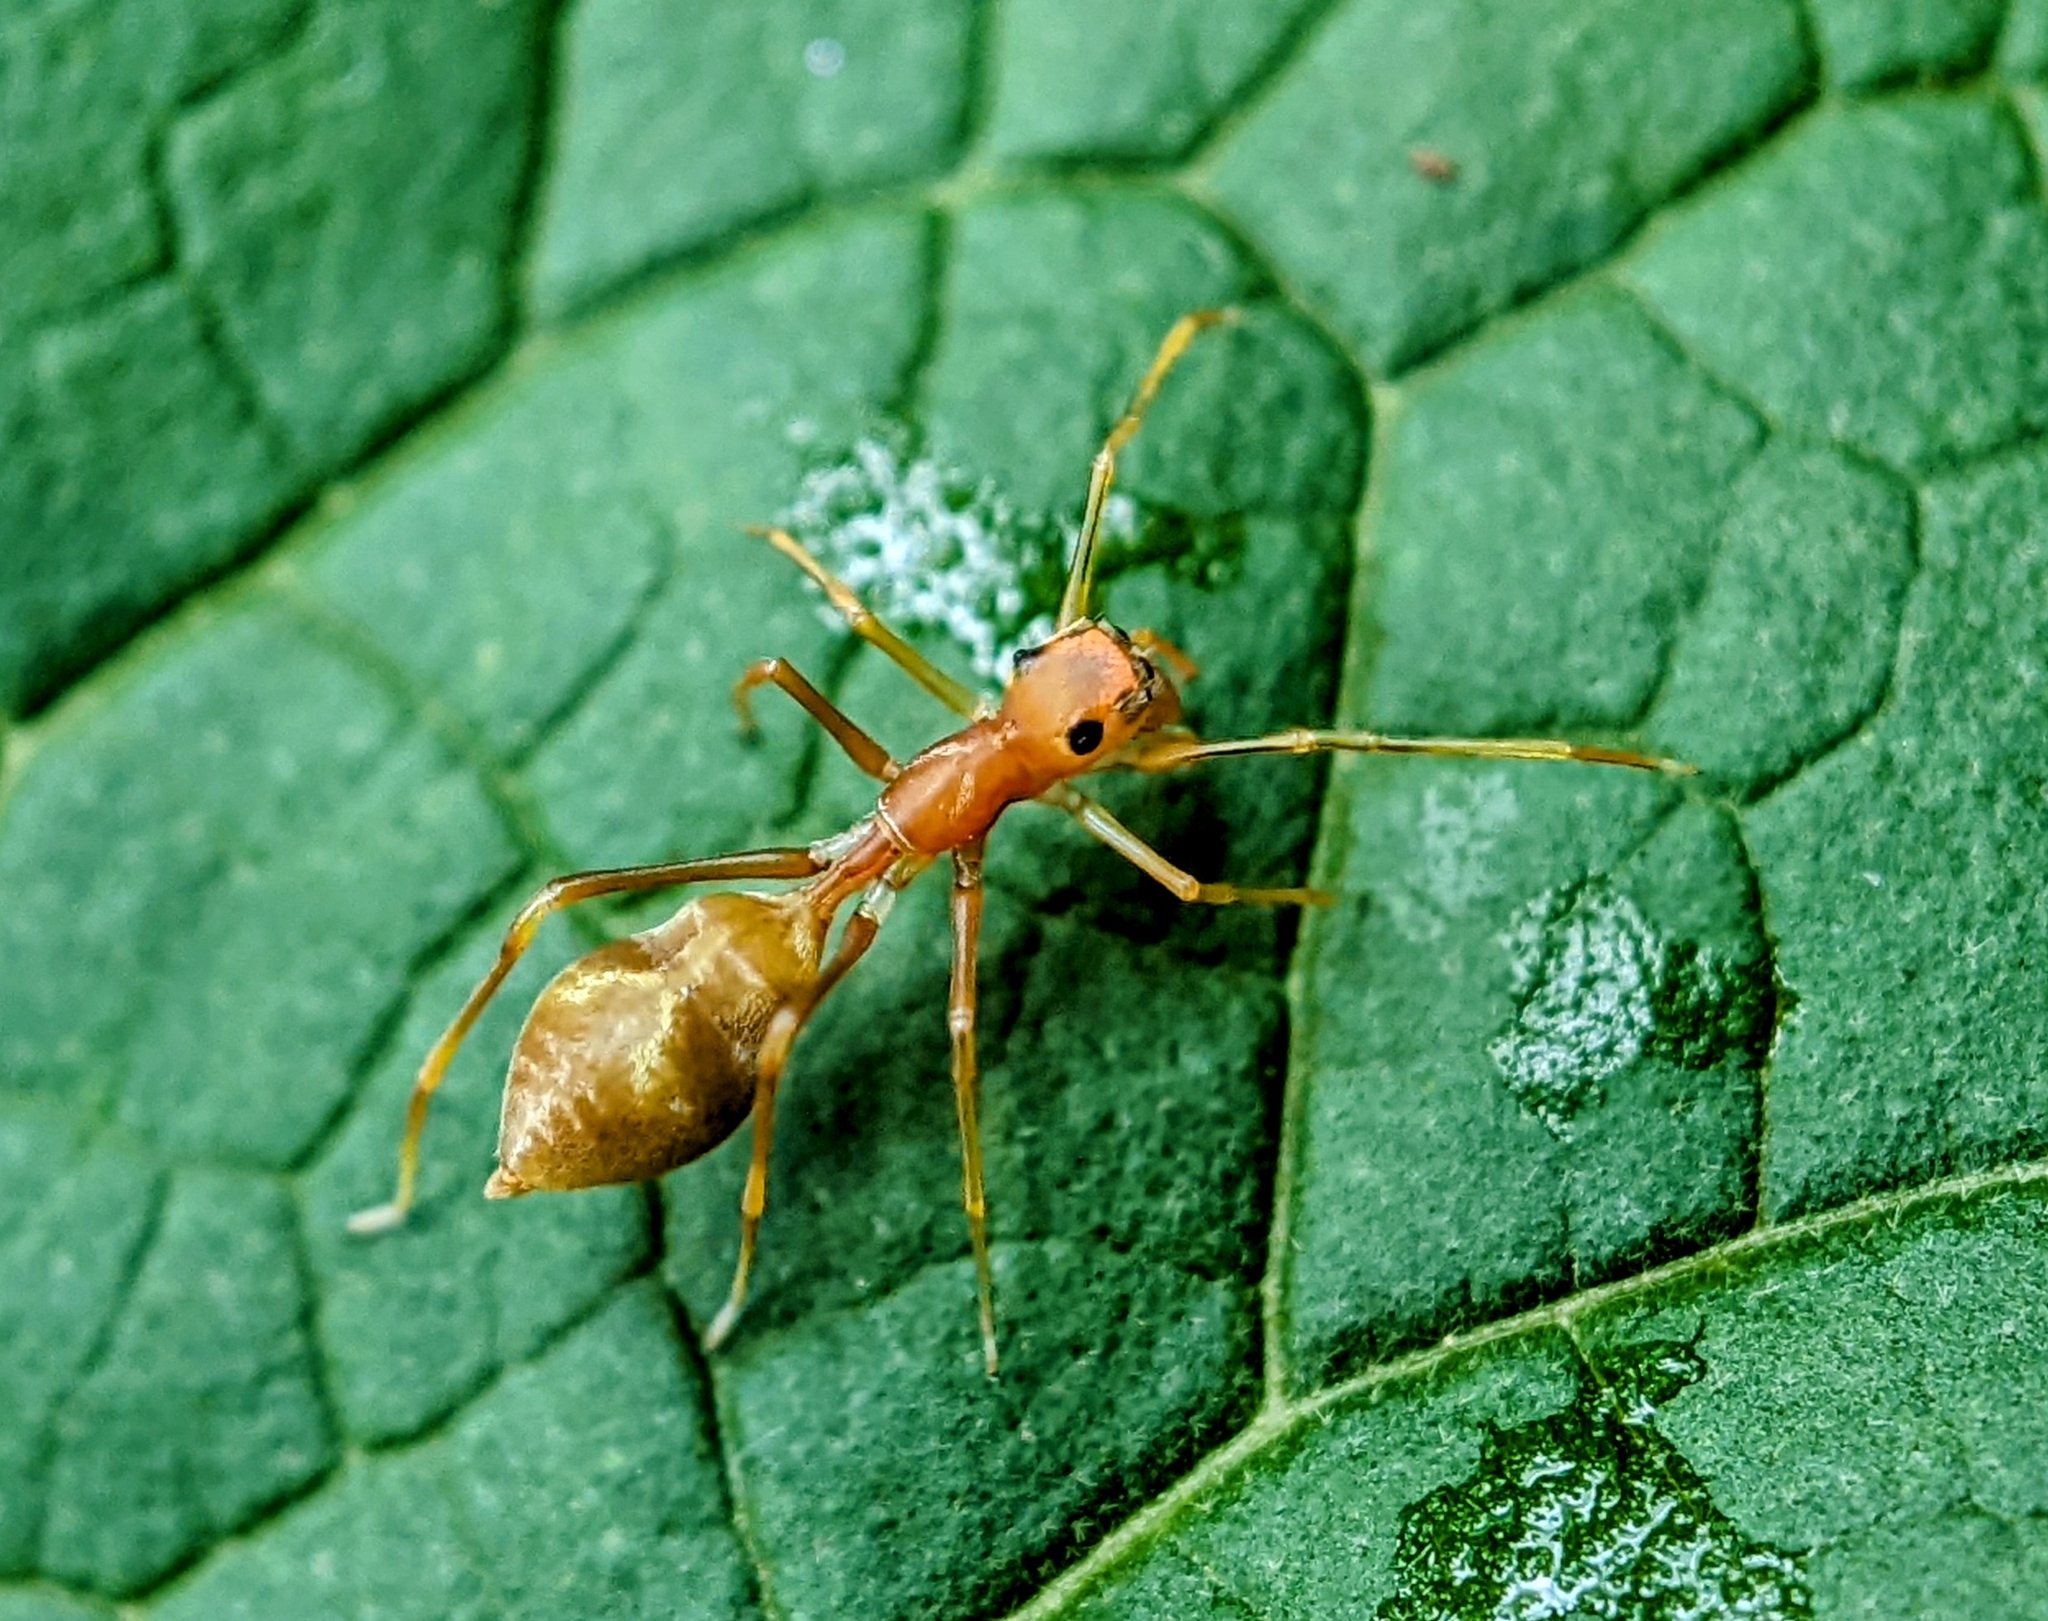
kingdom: Animalia
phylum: Arthropoda
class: Arachnida
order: Araneae
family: Salticidae
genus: Myrmaplata
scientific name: Myrmaplata plataleoides
